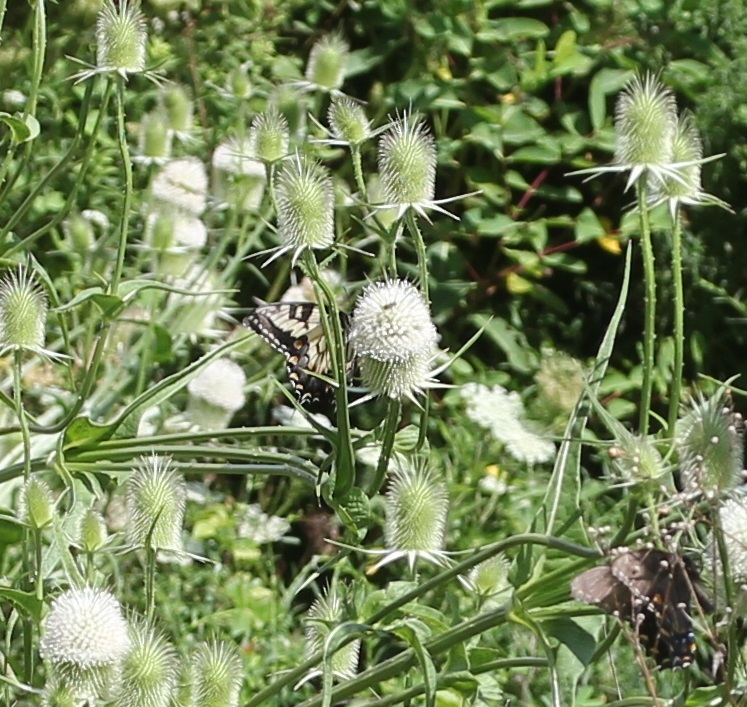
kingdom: Animalia
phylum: Arthropoda
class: Insecta
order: Lepidoptera
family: Papilionidae
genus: Papilio
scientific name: Papilio glaucus
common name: Tiger swallowtail
